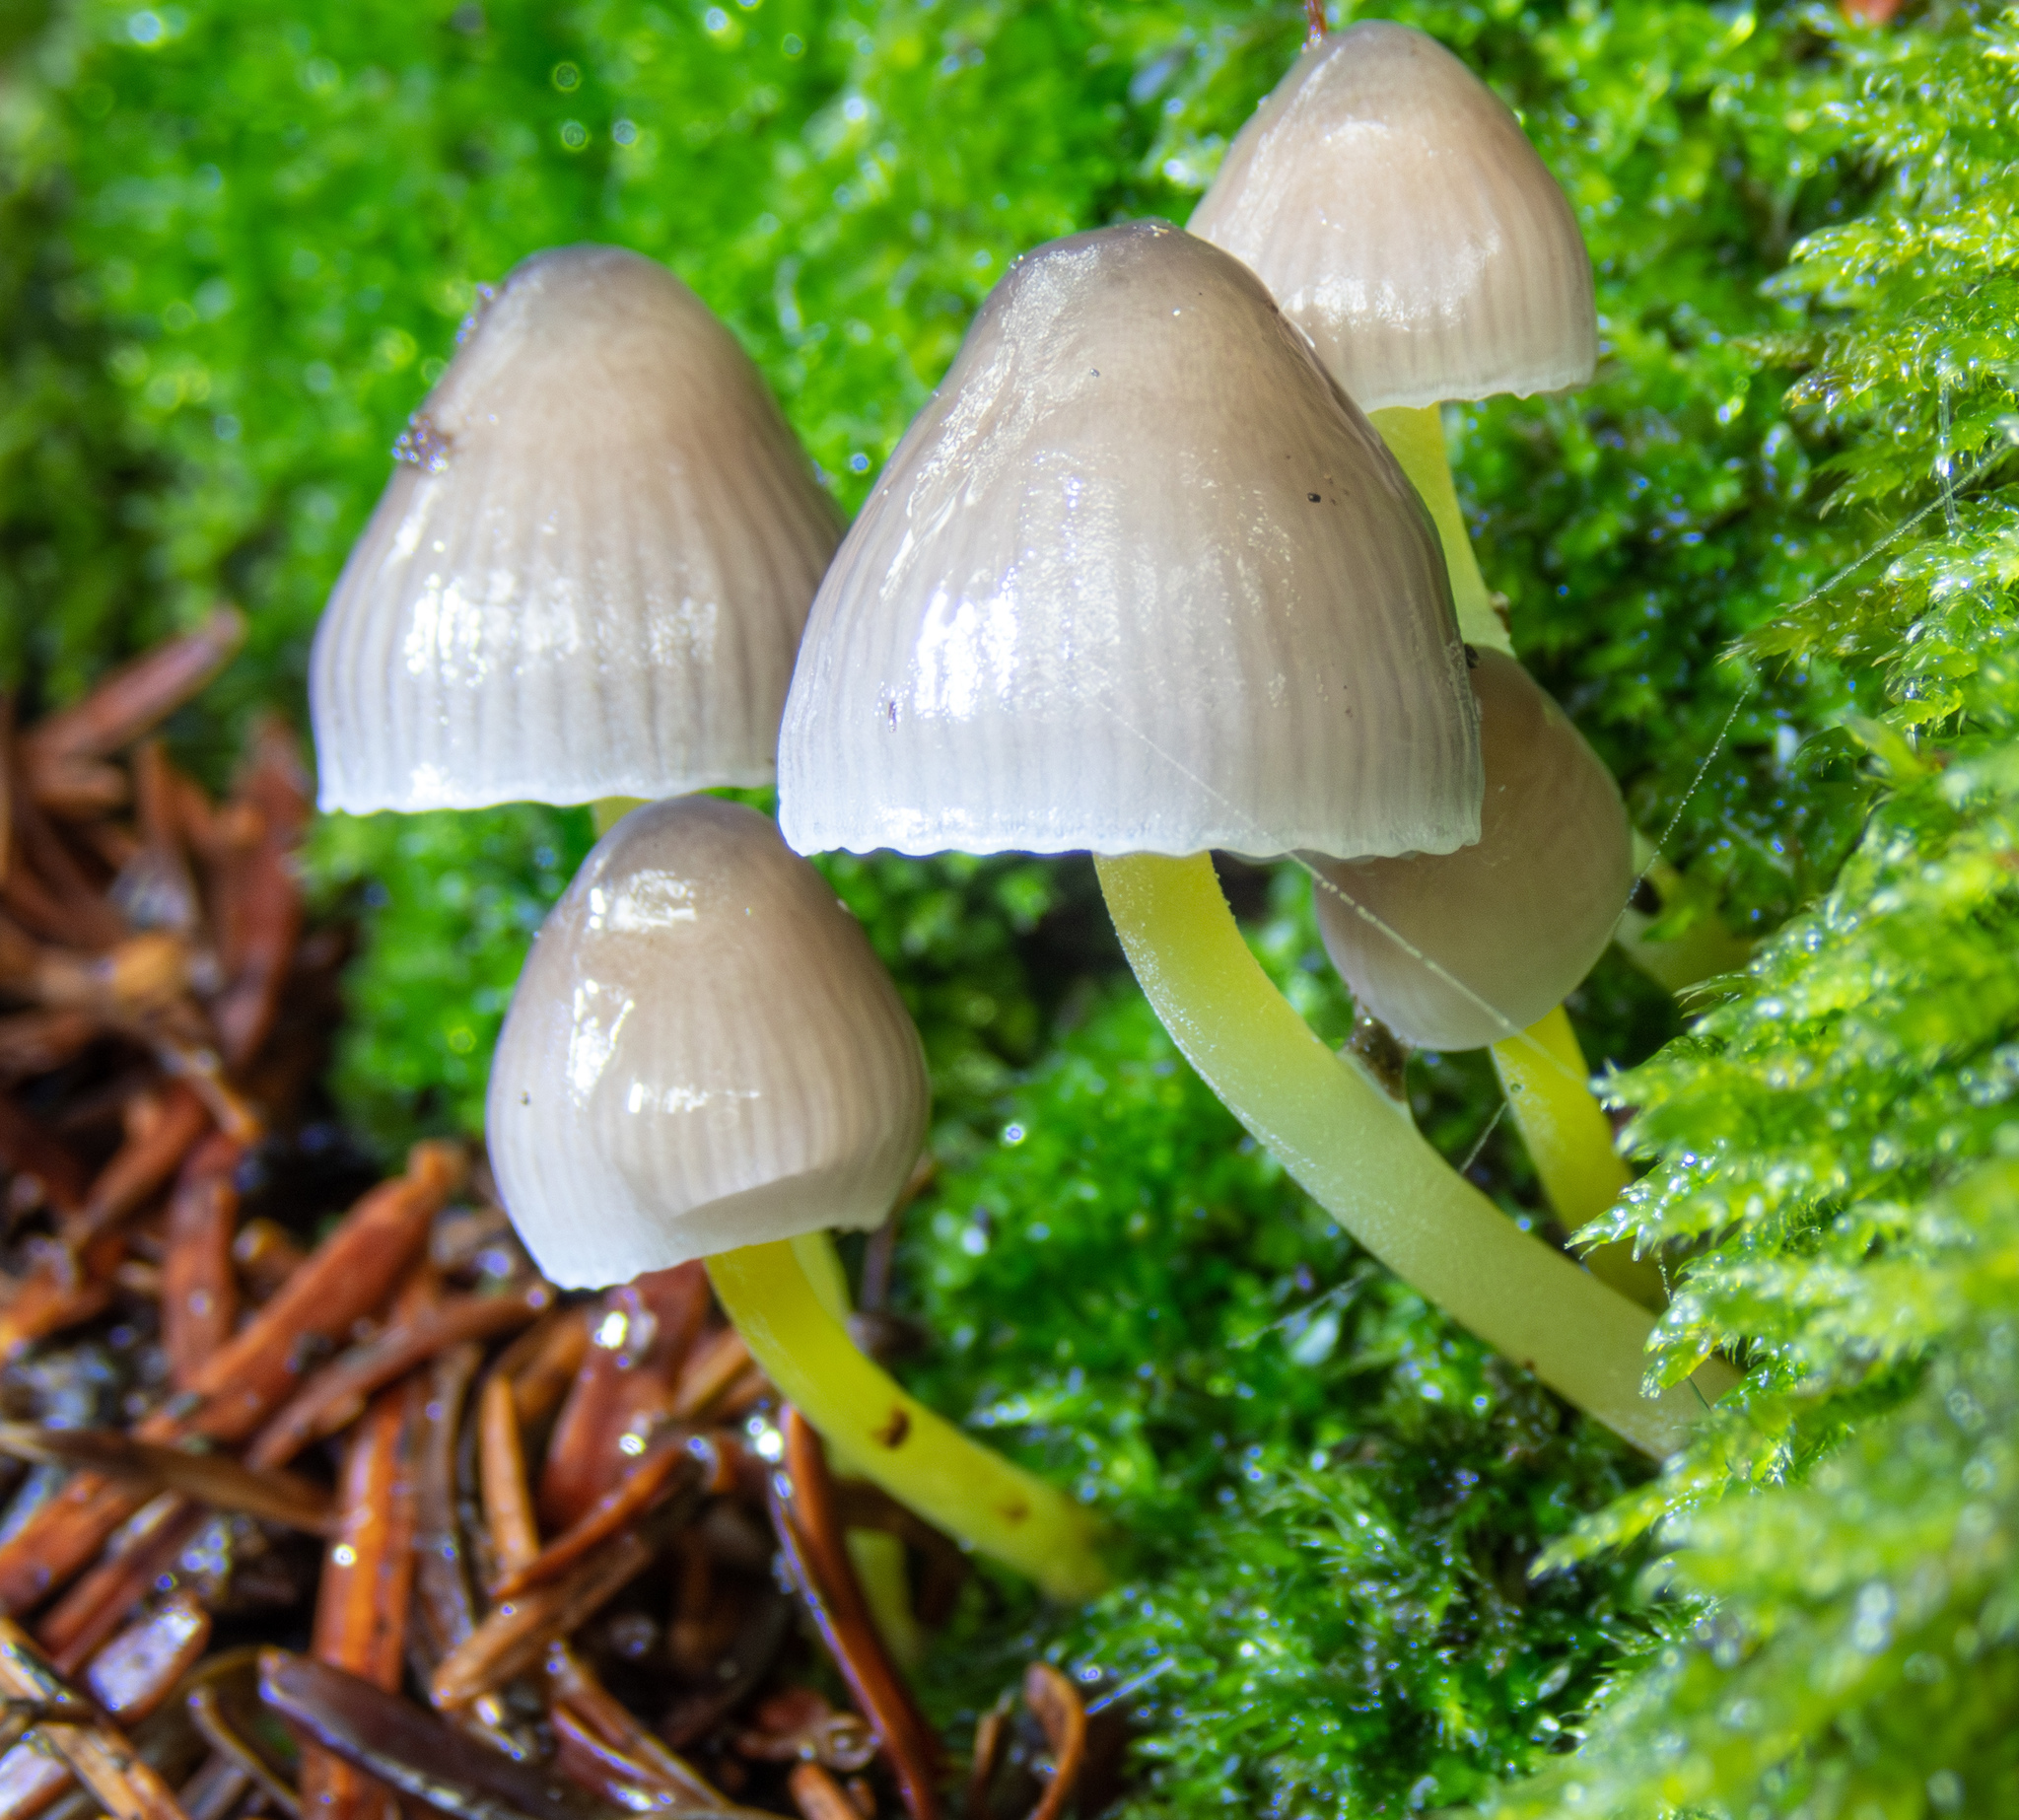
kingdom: Fungi
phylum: Basidiomycota
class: Agaricomycetes
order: Agaricales
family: Mycenaceae
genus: Mycena
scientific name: Mycena epipterygia
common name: Yellowleg bonnet
